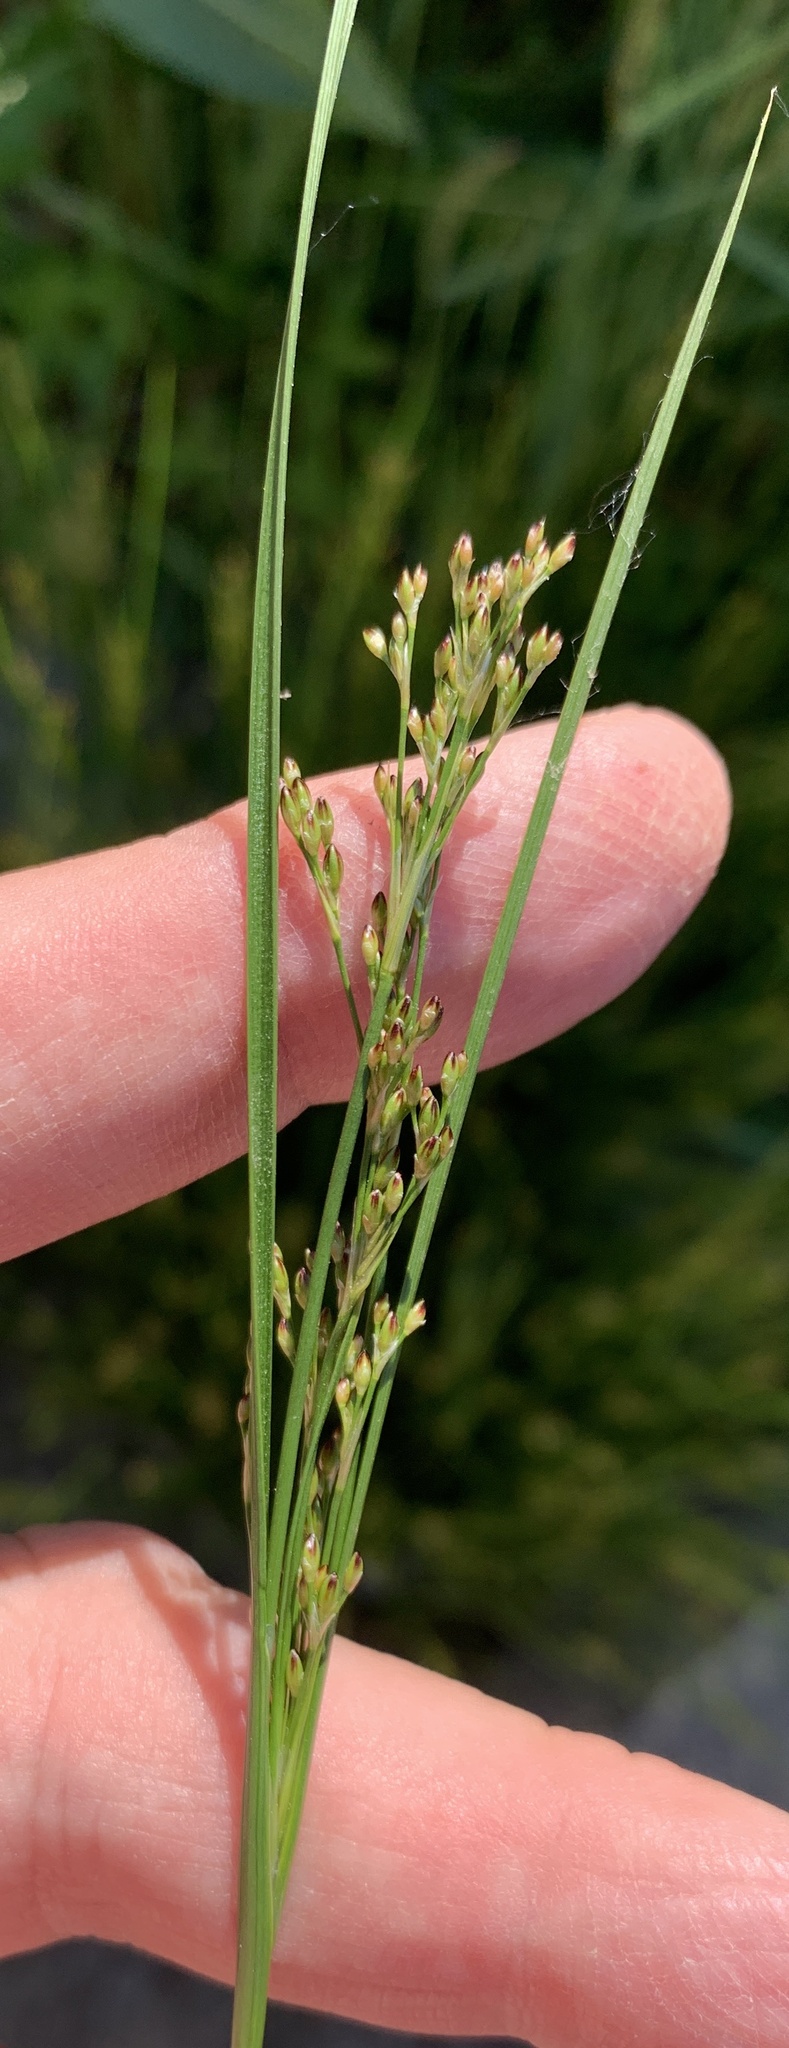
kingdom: Plantae
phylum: Tracheophyta
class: Liliopsida
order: Poales
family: Juncaceae
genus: Juncus
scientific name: Juncus compressus
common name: Round-fruited rush
